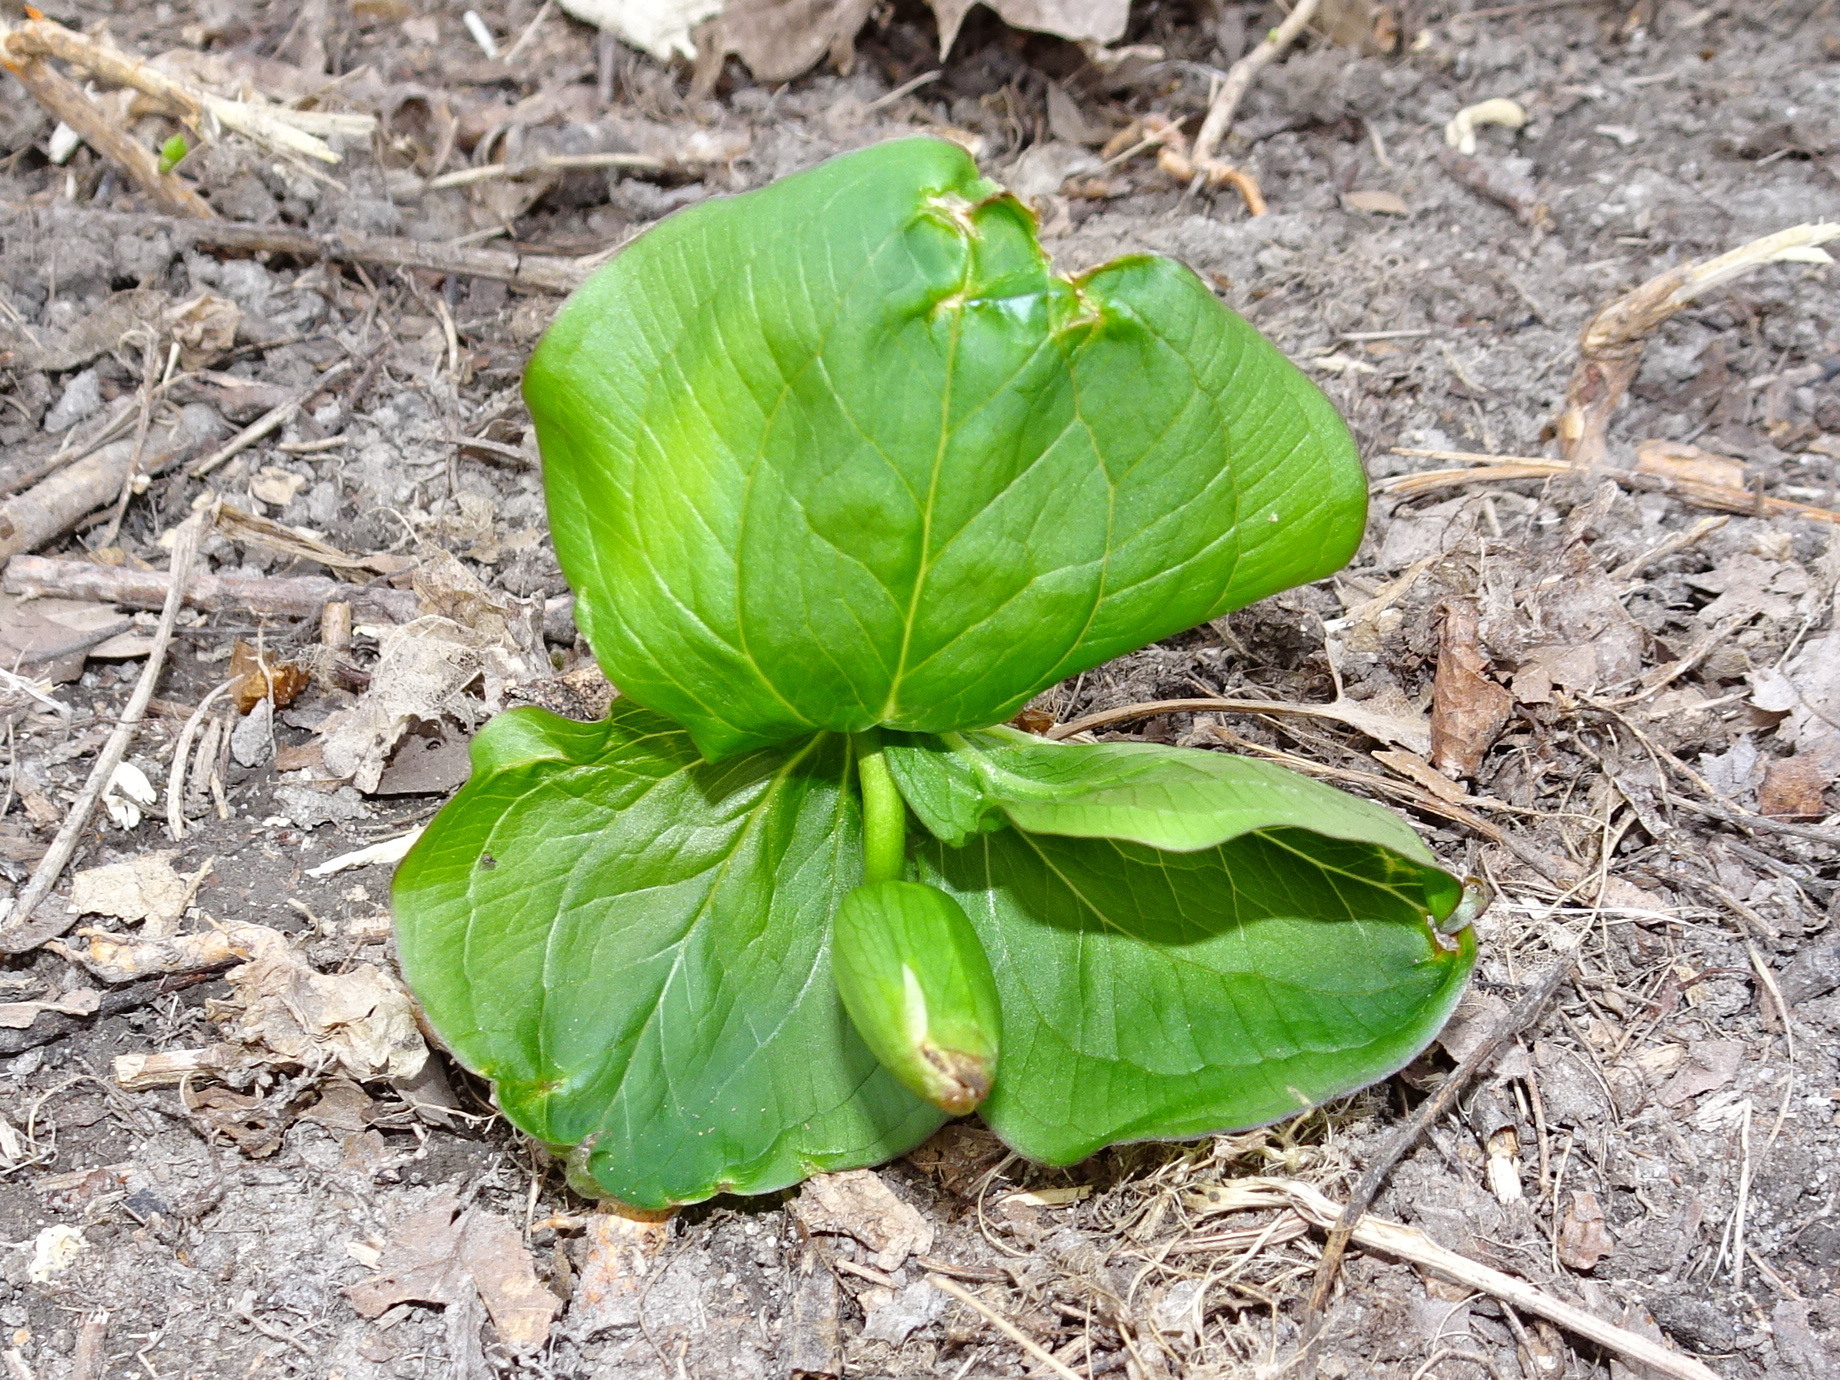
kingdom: Plantae
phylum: Tracheophyta
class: Liliopsida
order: Liliales
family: Melanthiaceae
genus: Trillium
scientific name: Trillium grandiflorum
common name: Great white trillium
